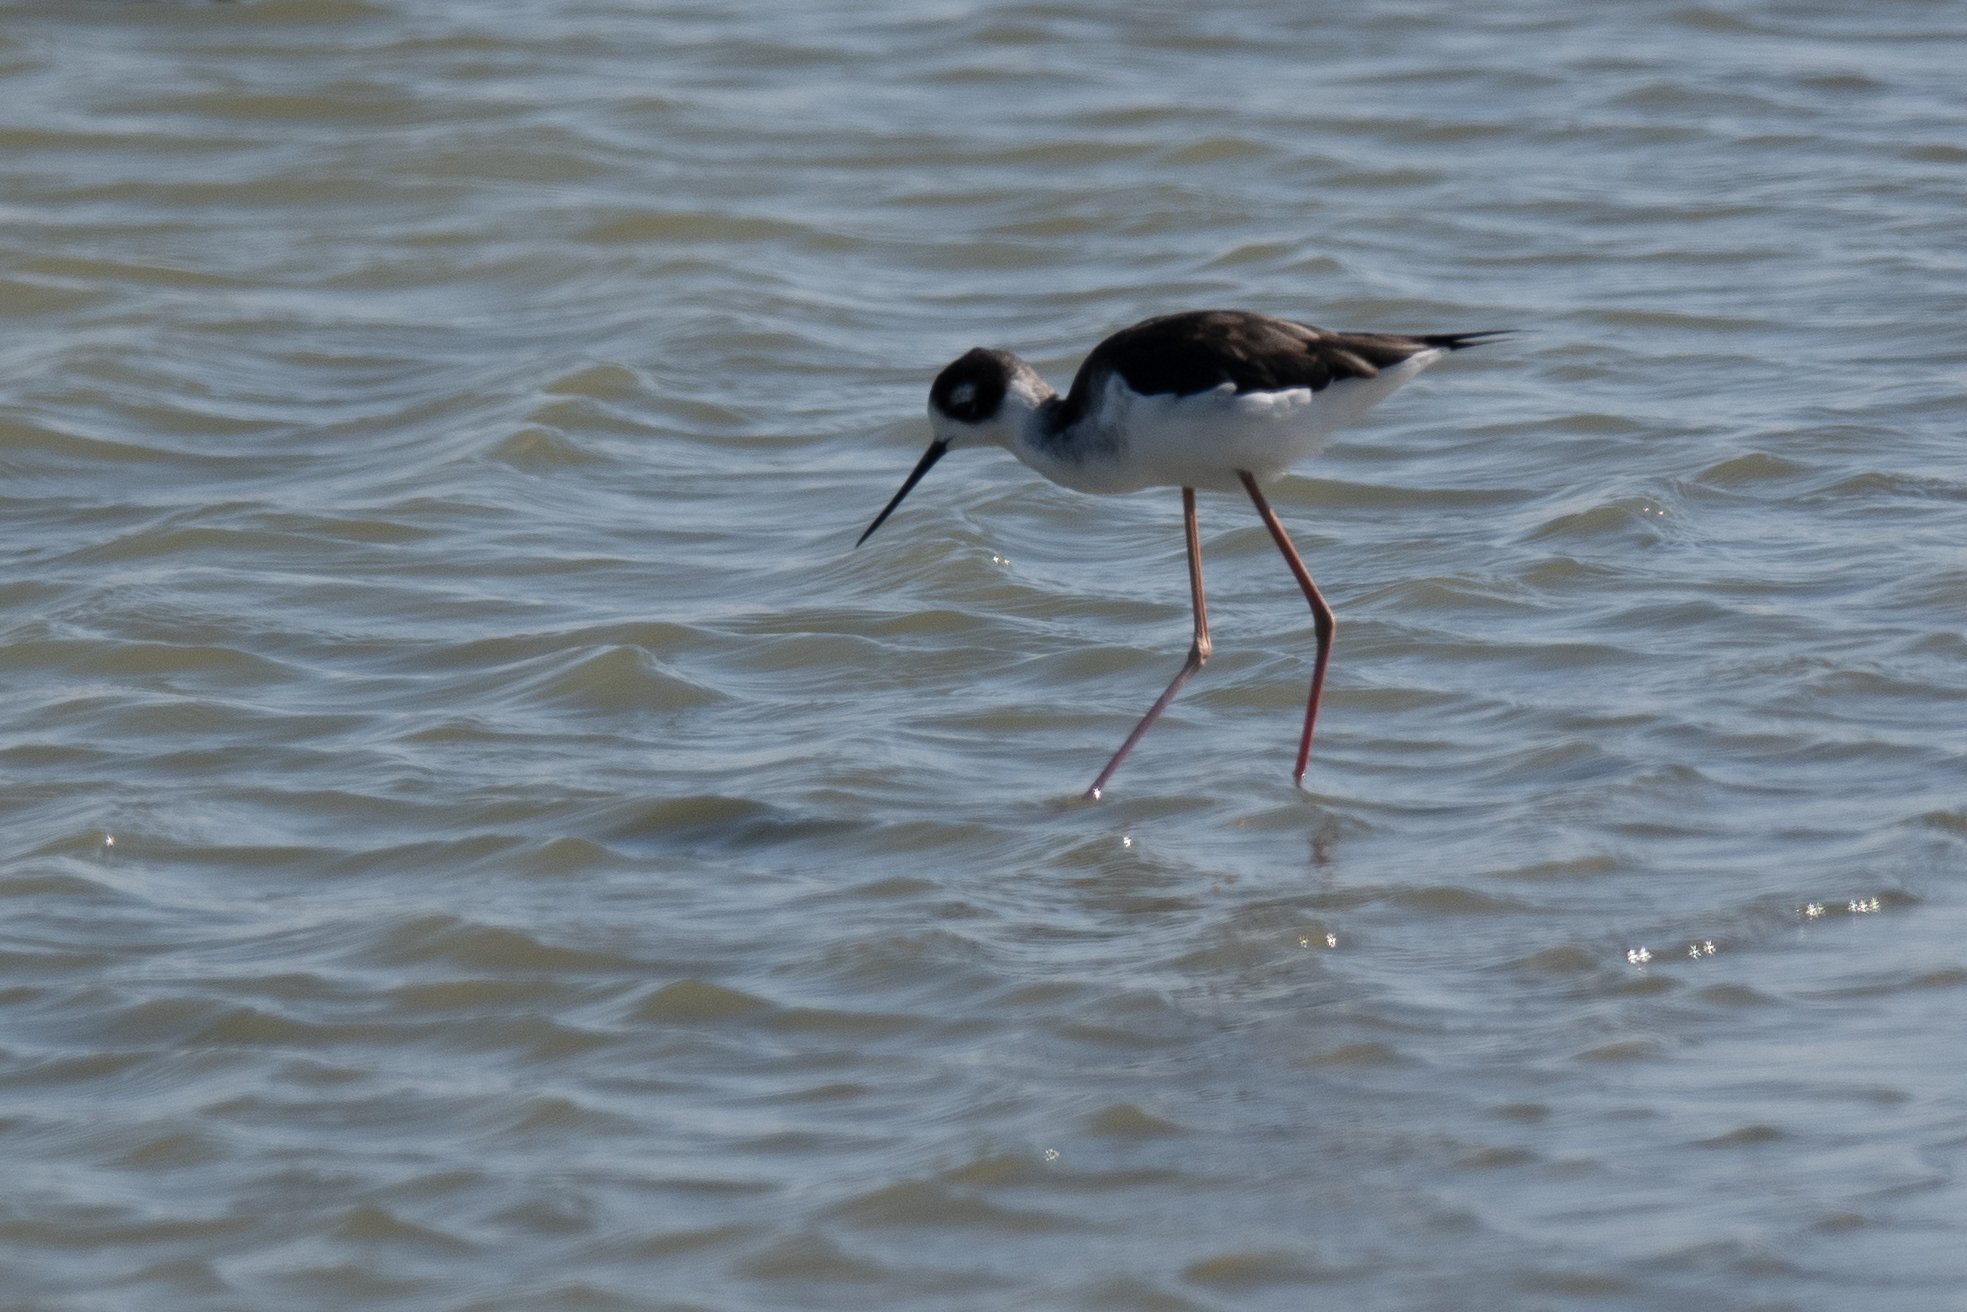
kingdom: Animalia
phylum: Chordata
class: Aves
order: Charadriiformes
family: Recurvirostridae
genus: Himantopus
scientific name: Himantopus mexicanus
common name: Black-necked stilt
